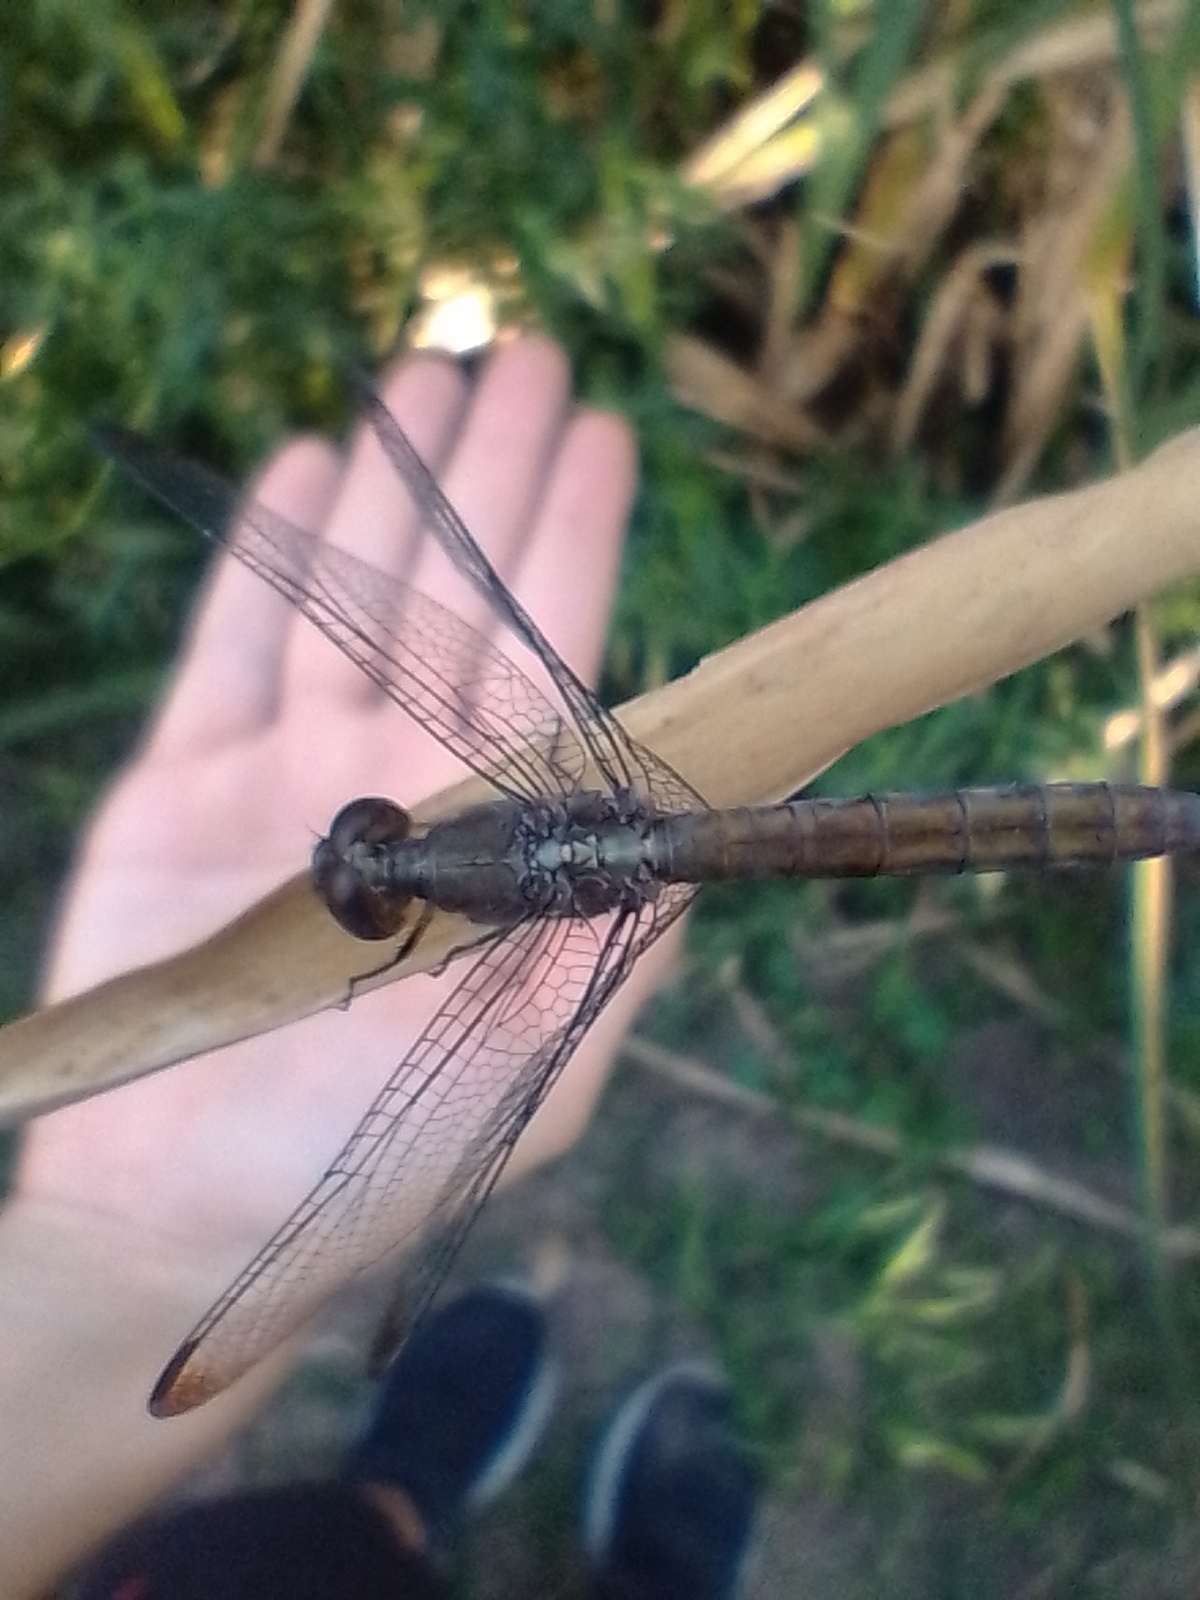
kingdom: Animalia
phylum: Arthropoda
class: Insecta
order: Odonata
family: Libellulidae
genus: Erythrodiplax
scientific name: Erythrodiplax atroterminata
